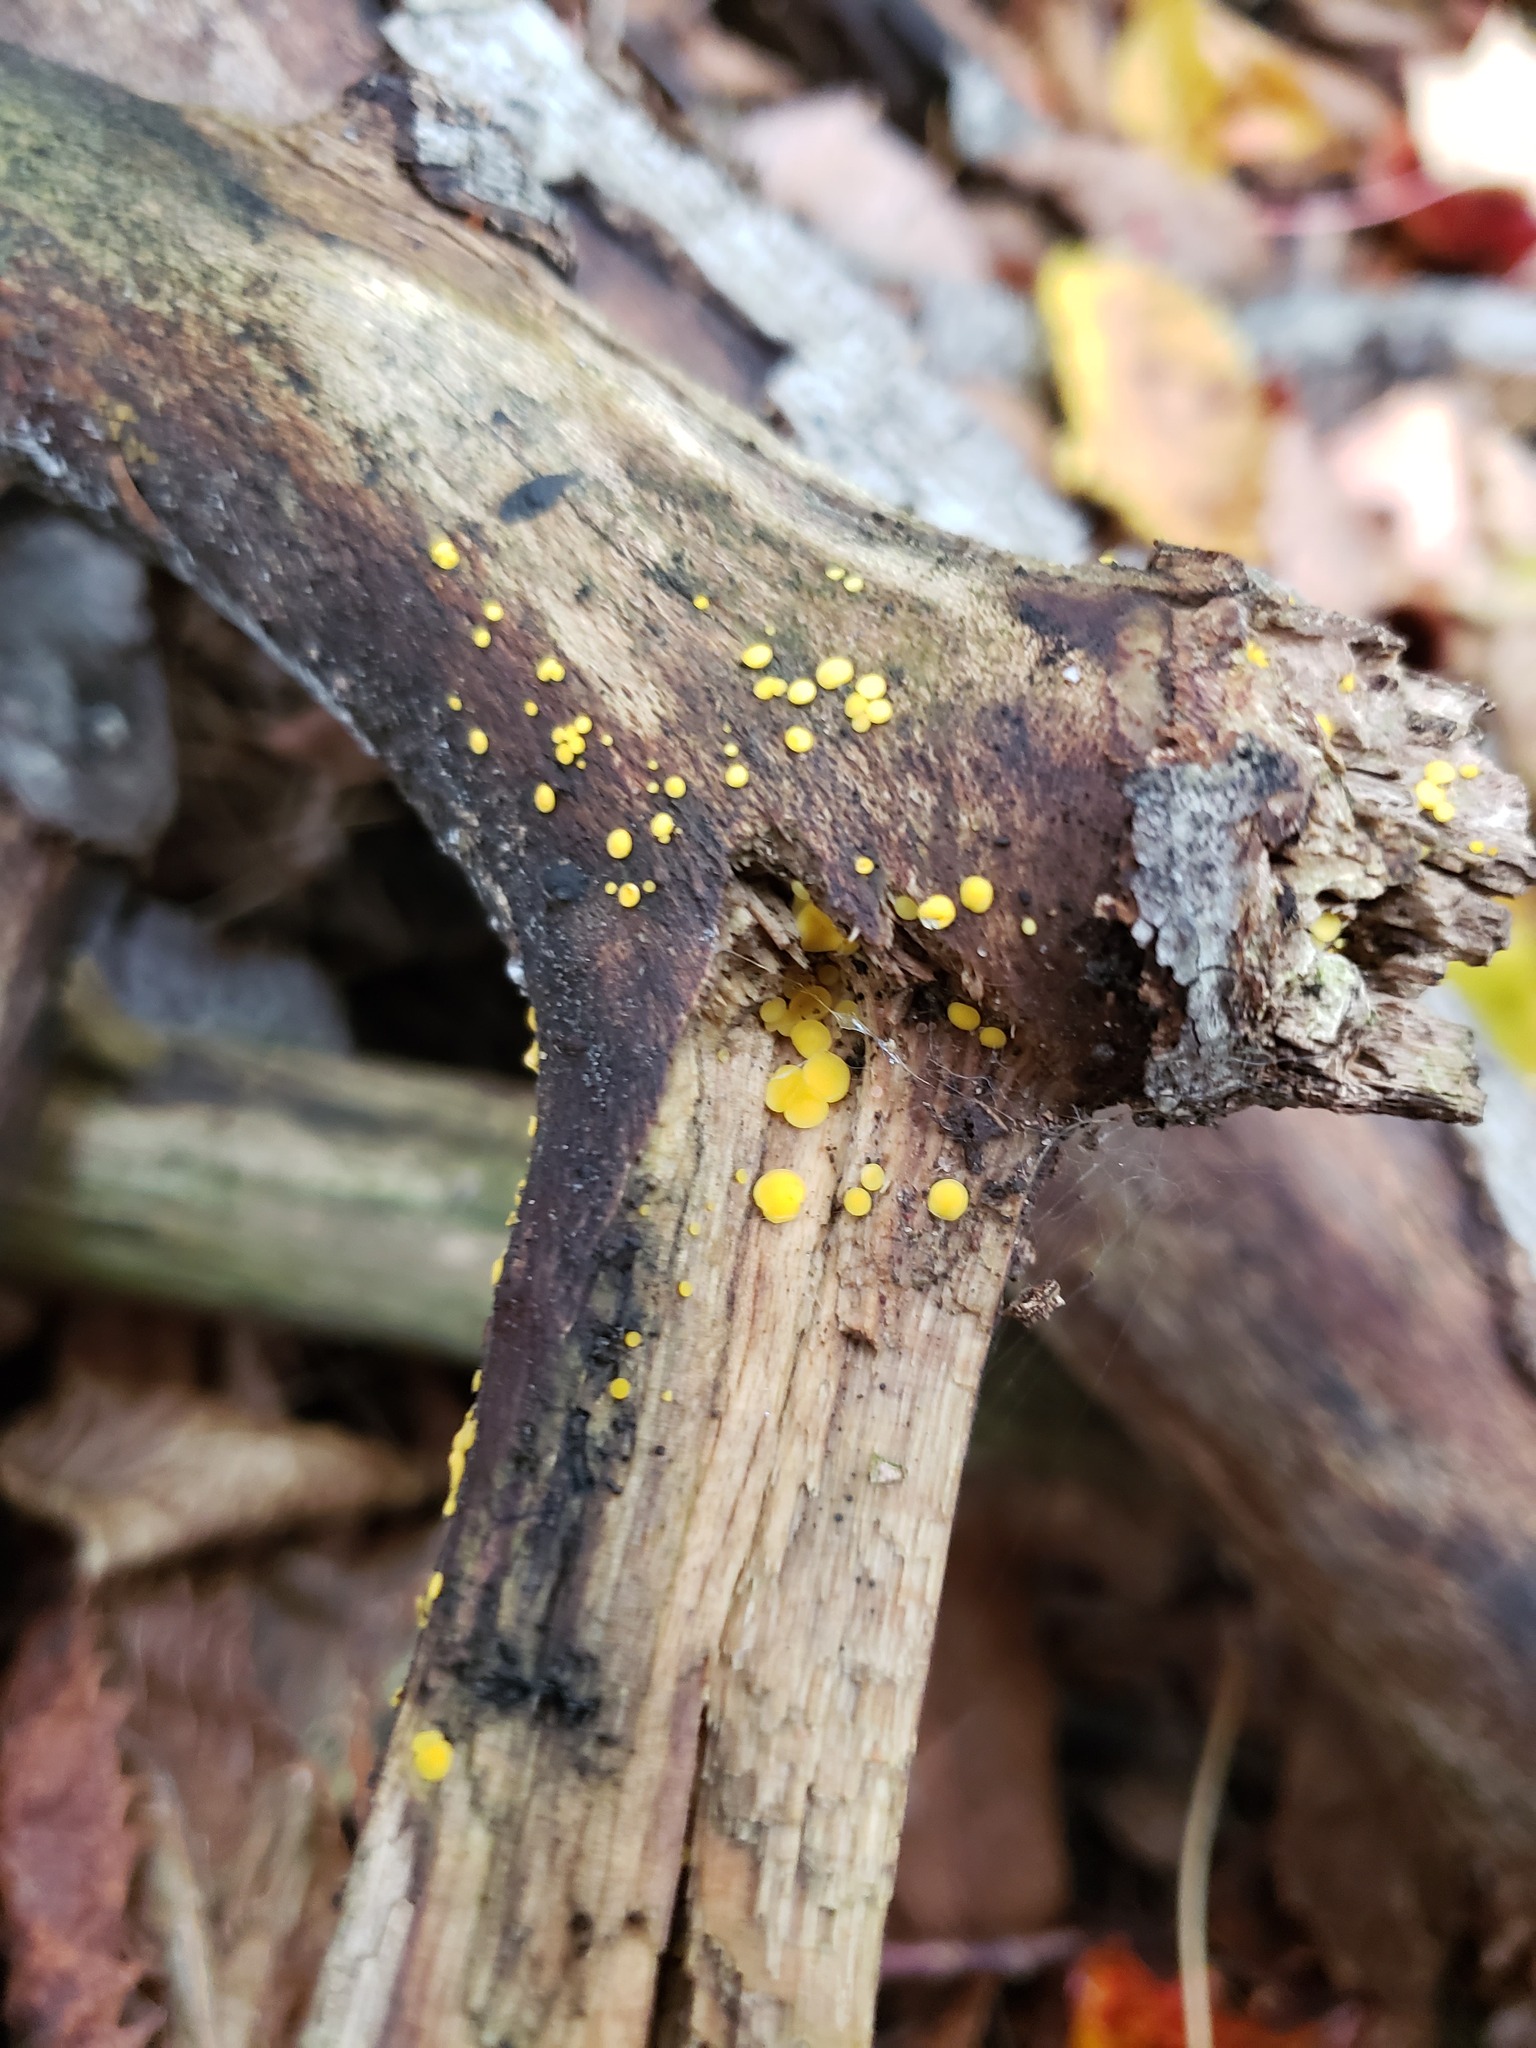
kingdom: Fungi
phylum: Ascomycota
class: Leotiomycetes
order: Helotiales
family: Pezizellaceae
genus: Calycina
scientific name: Calycina citrina
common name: Yellow fairy cups
